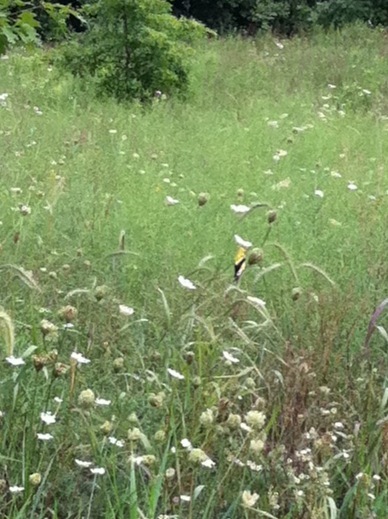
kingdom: Animalia
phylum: Chordata
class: Aves
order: Passeriformes
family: Fringillidae
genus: Spinus
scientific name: Spinus tristis
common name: American goldfinch
